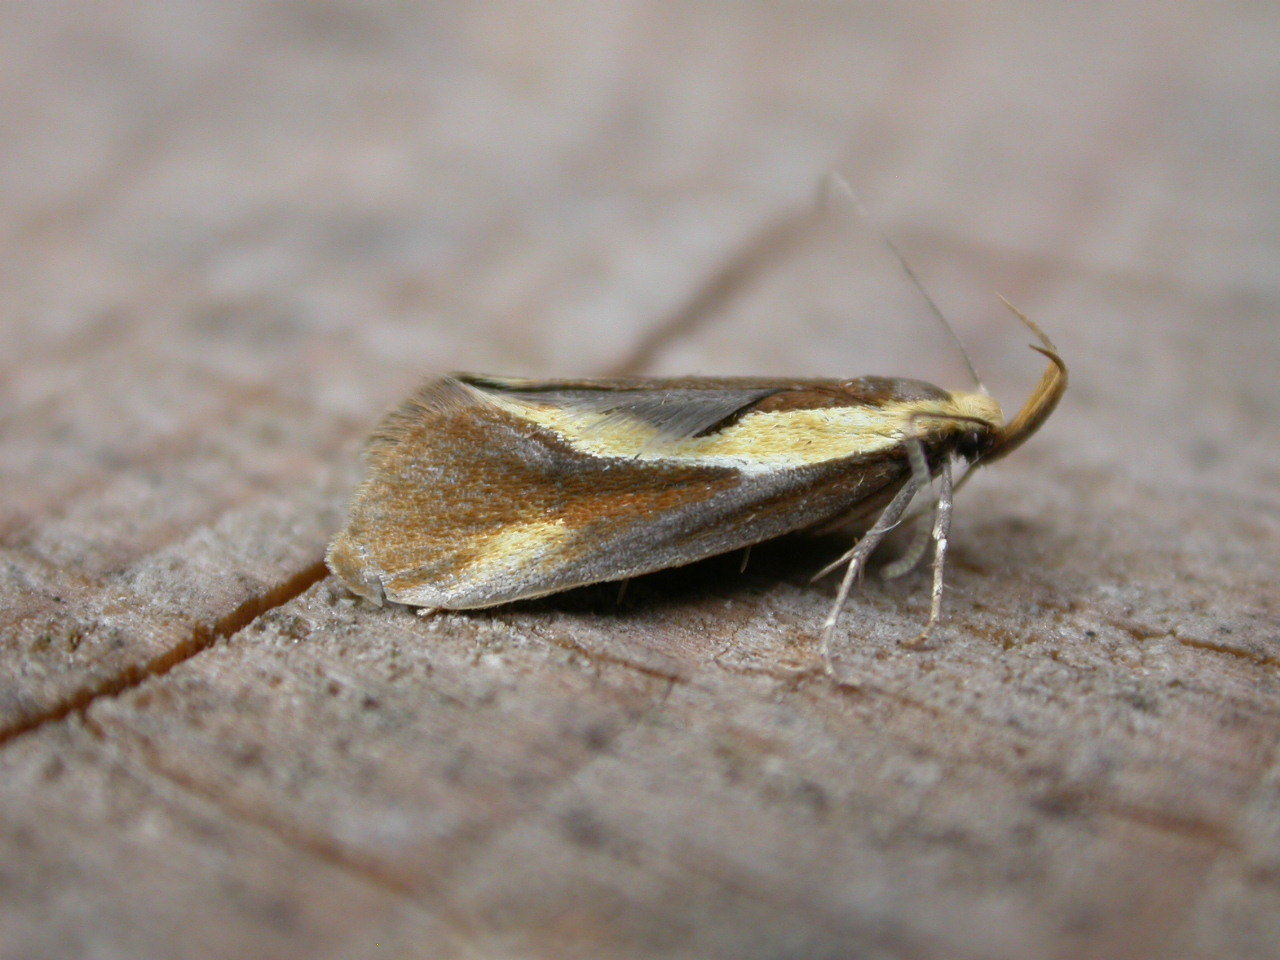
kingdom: Animalia
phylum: Arthropoda
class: Insecta
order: Lepidoptera
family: Oecophoridae
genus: Harpella
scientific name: Harpella forficella
